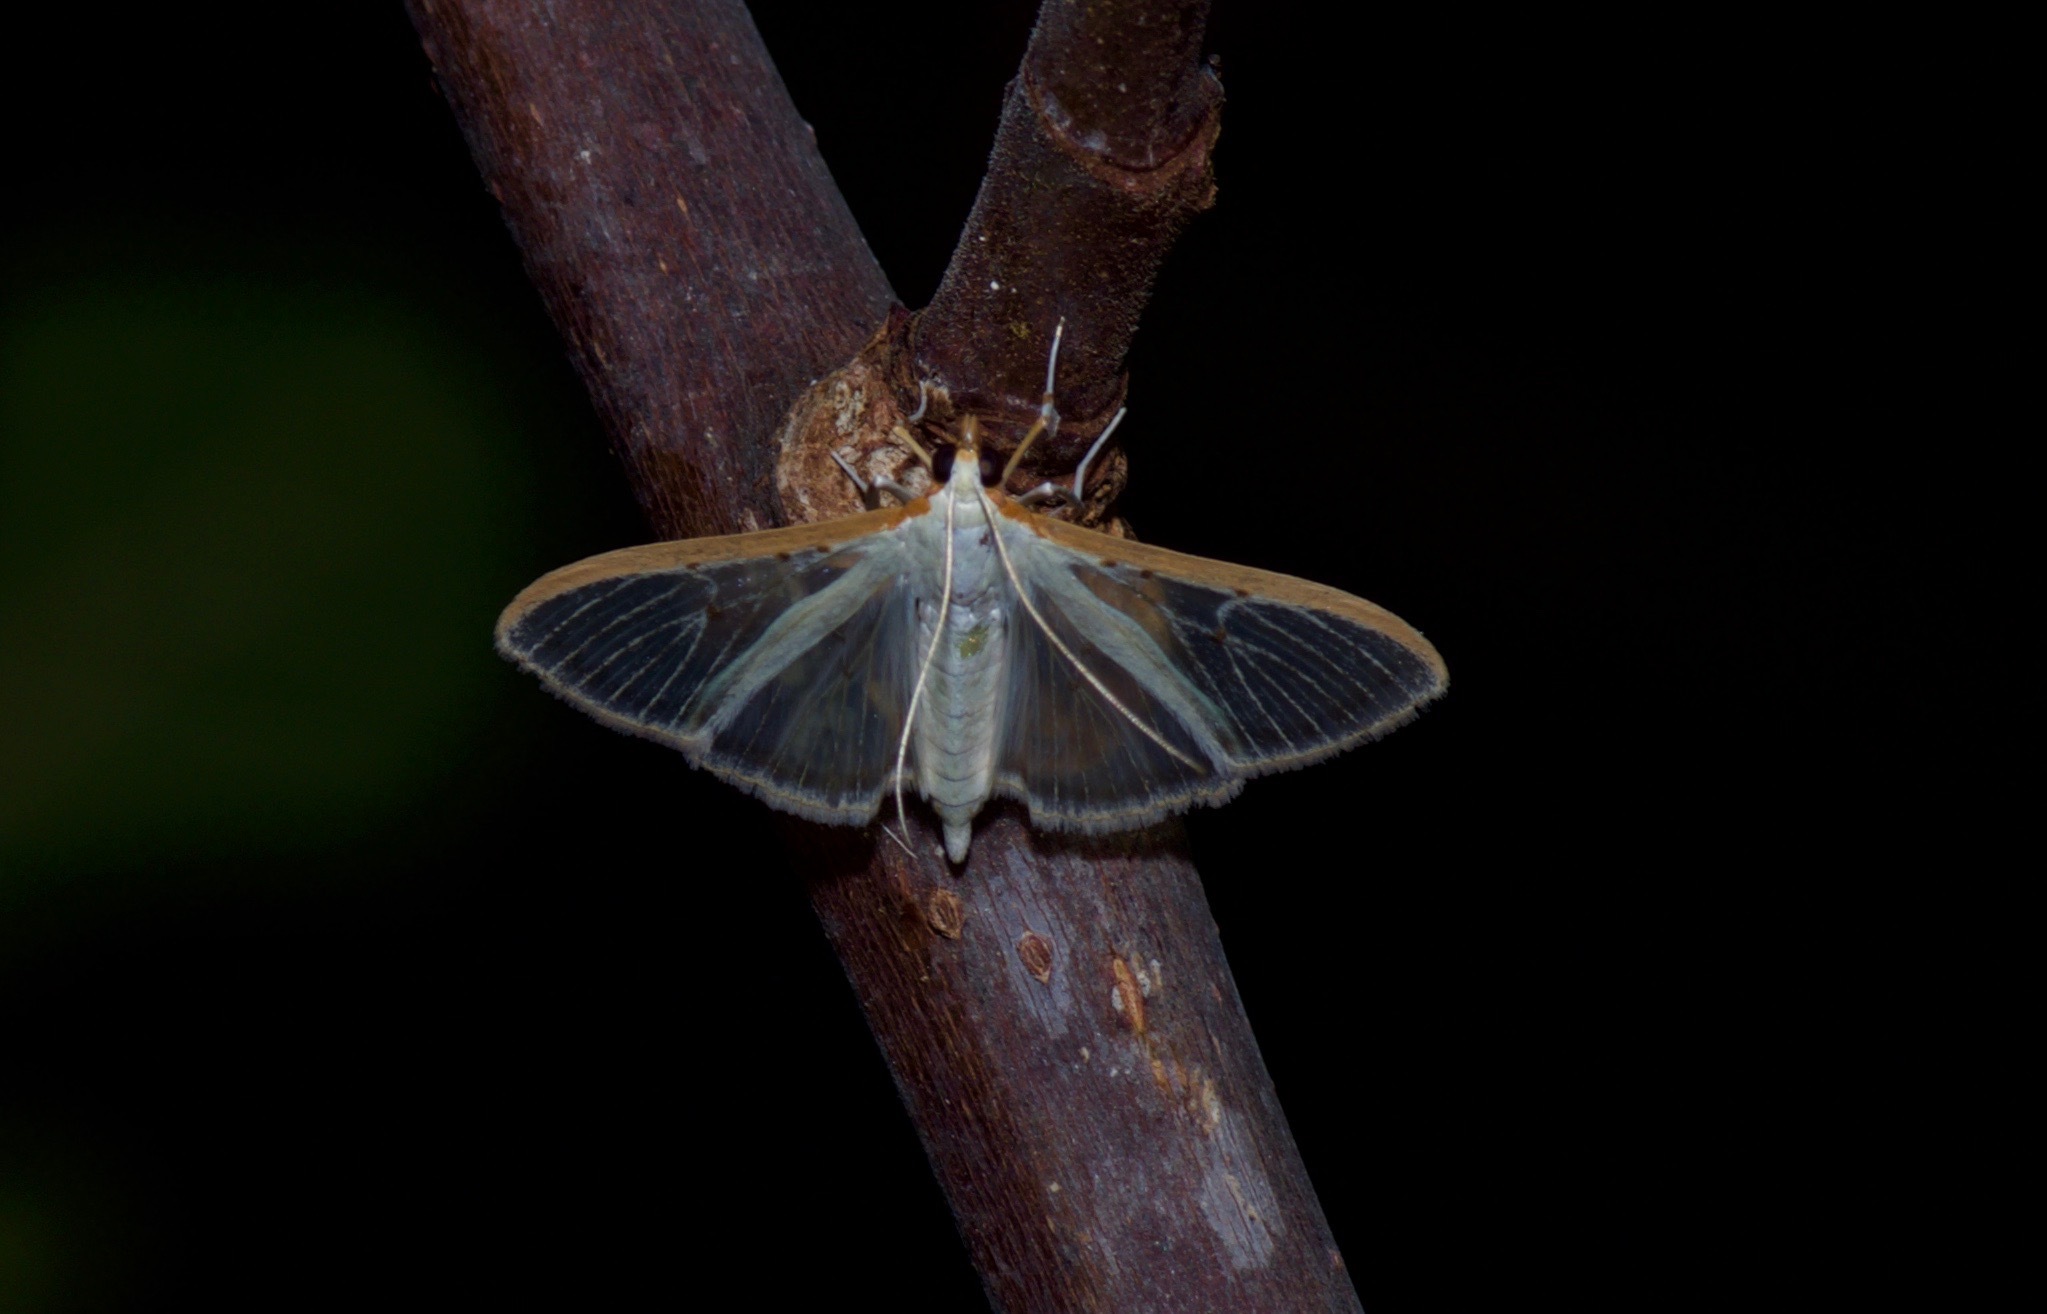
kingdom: Animalia
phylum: Arthropoda
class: Insecta
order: Lepidoptera
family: Crambidae
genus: Palpita
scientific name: Palpita quadristigmalis
